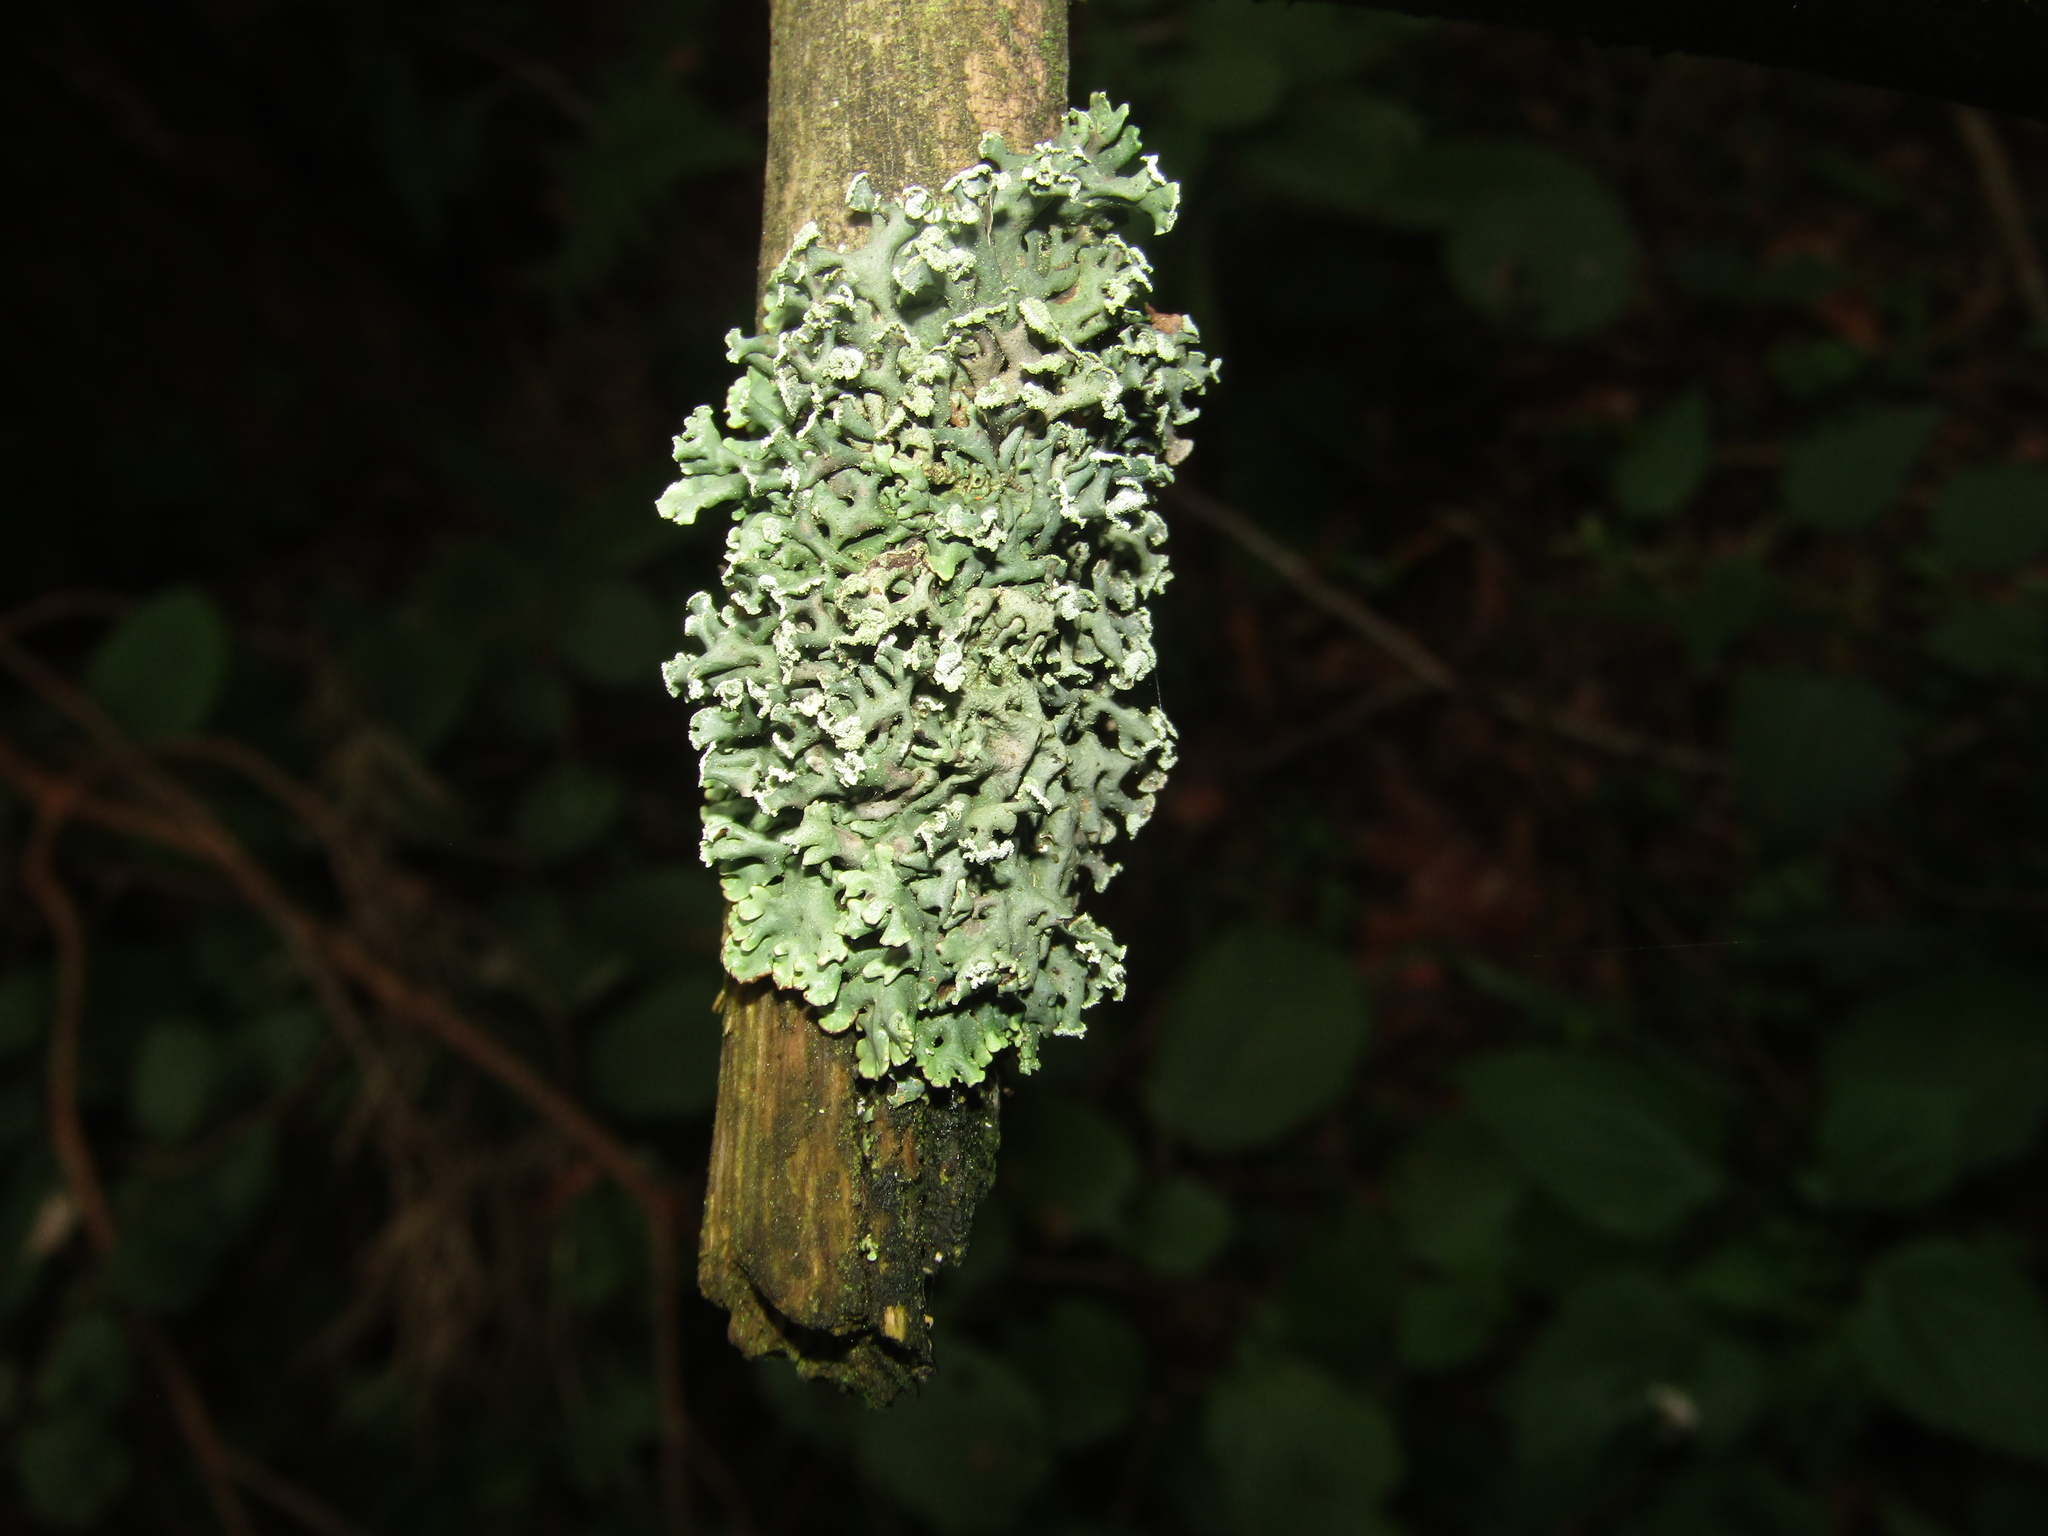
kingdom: Fungi
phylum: Ascomycota
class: Lecanoromycetes
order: Lecanorales
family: Parmeliaceae
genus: Hypogymnia
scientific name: Hypogymnia physodes
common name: Dark crottle
